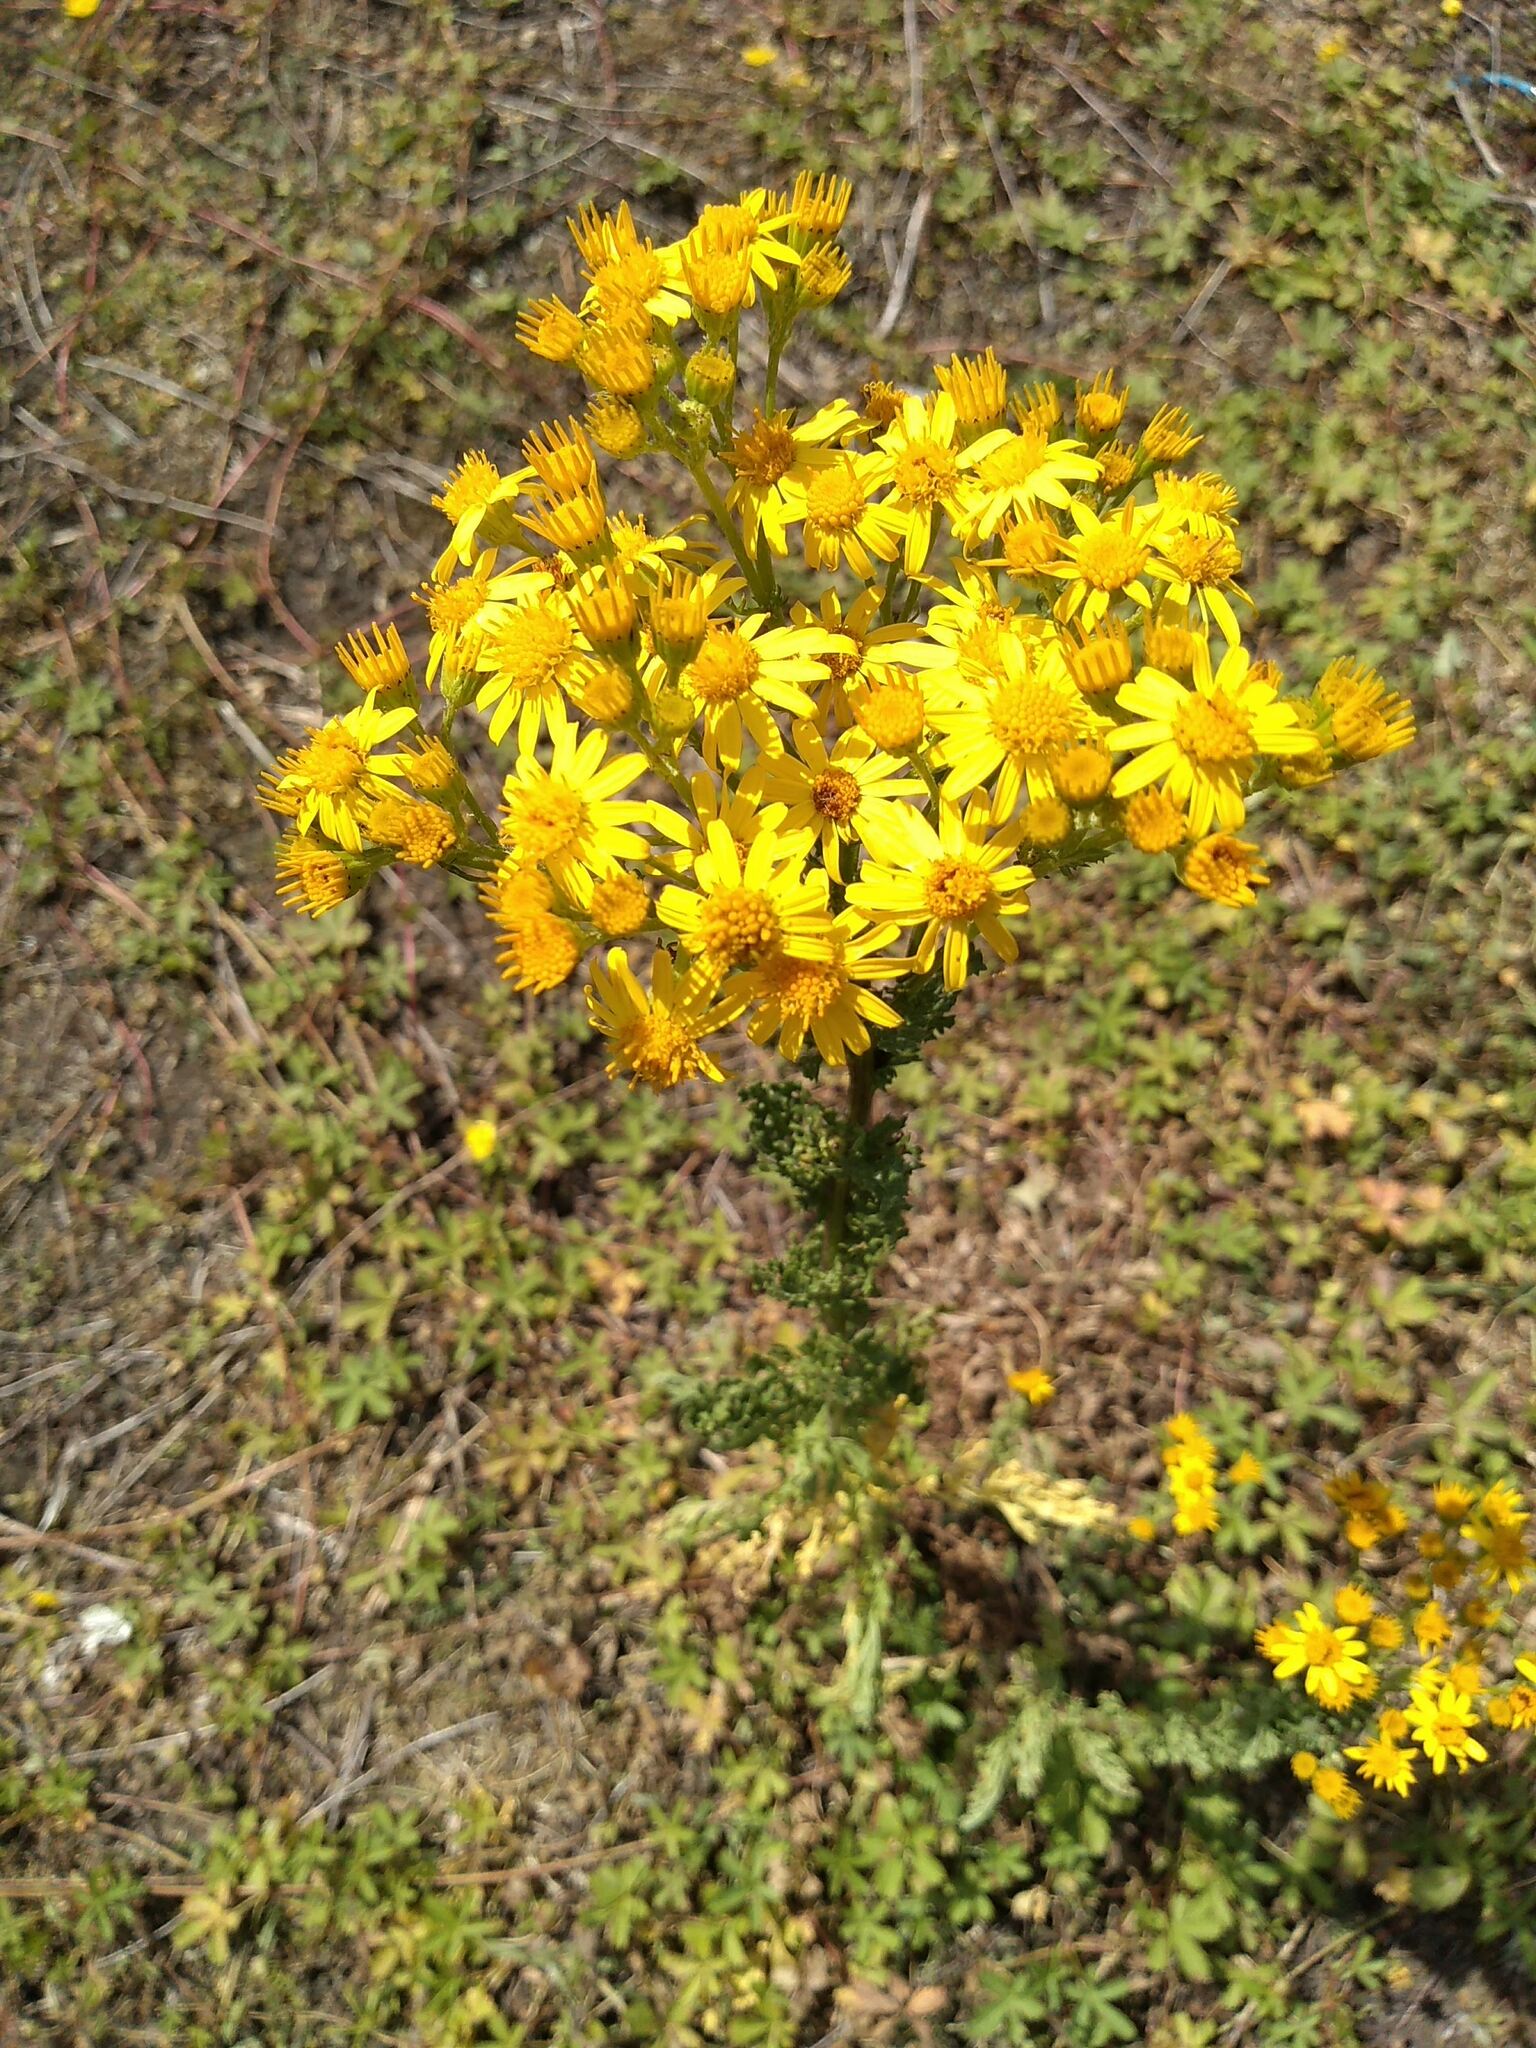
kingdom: Plantae
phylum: Tracheophyta
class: Magnoliopsida
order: Asterales
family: Asteraceae
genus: Jacobaea
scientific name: Jacobaea vulgaris
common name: Stinking willie
